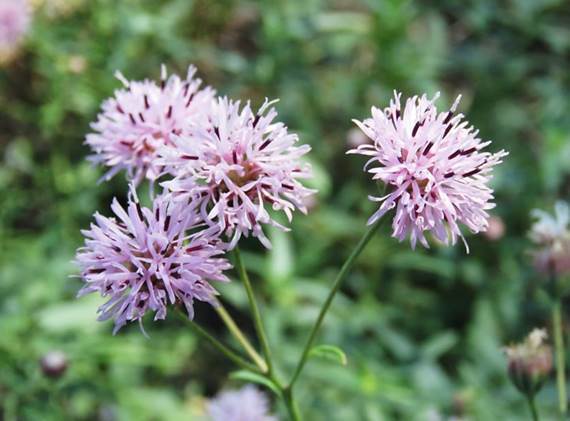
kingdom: Plantae
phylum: Tracheophyta
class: Magnoliopsida
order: Asterales
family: Asteraceae
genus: Palafoxia
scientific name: Palafoxia texana
